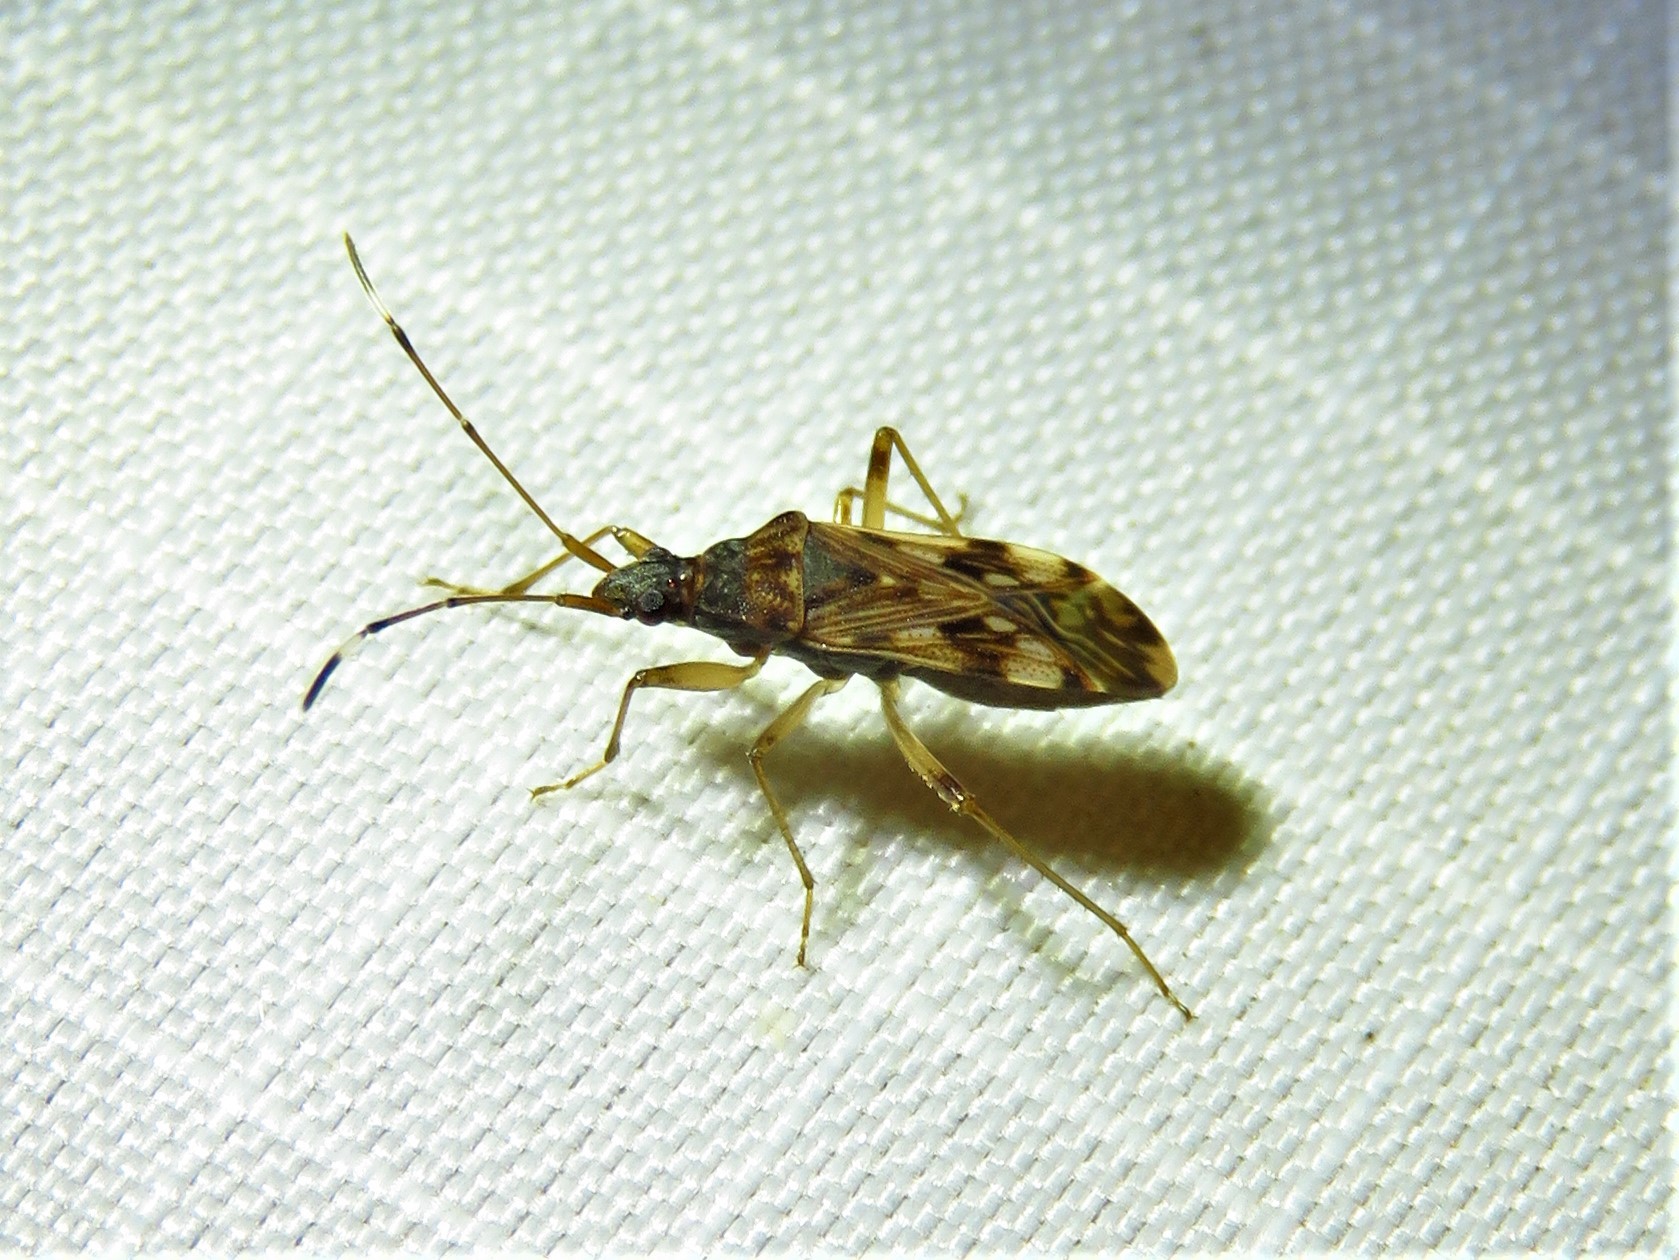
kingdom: Animalia
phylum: Arthropoda
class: Insecta
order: Hemiptera
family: Rhyparochromidae
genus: Ozophora
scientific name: Ozophora picturata
